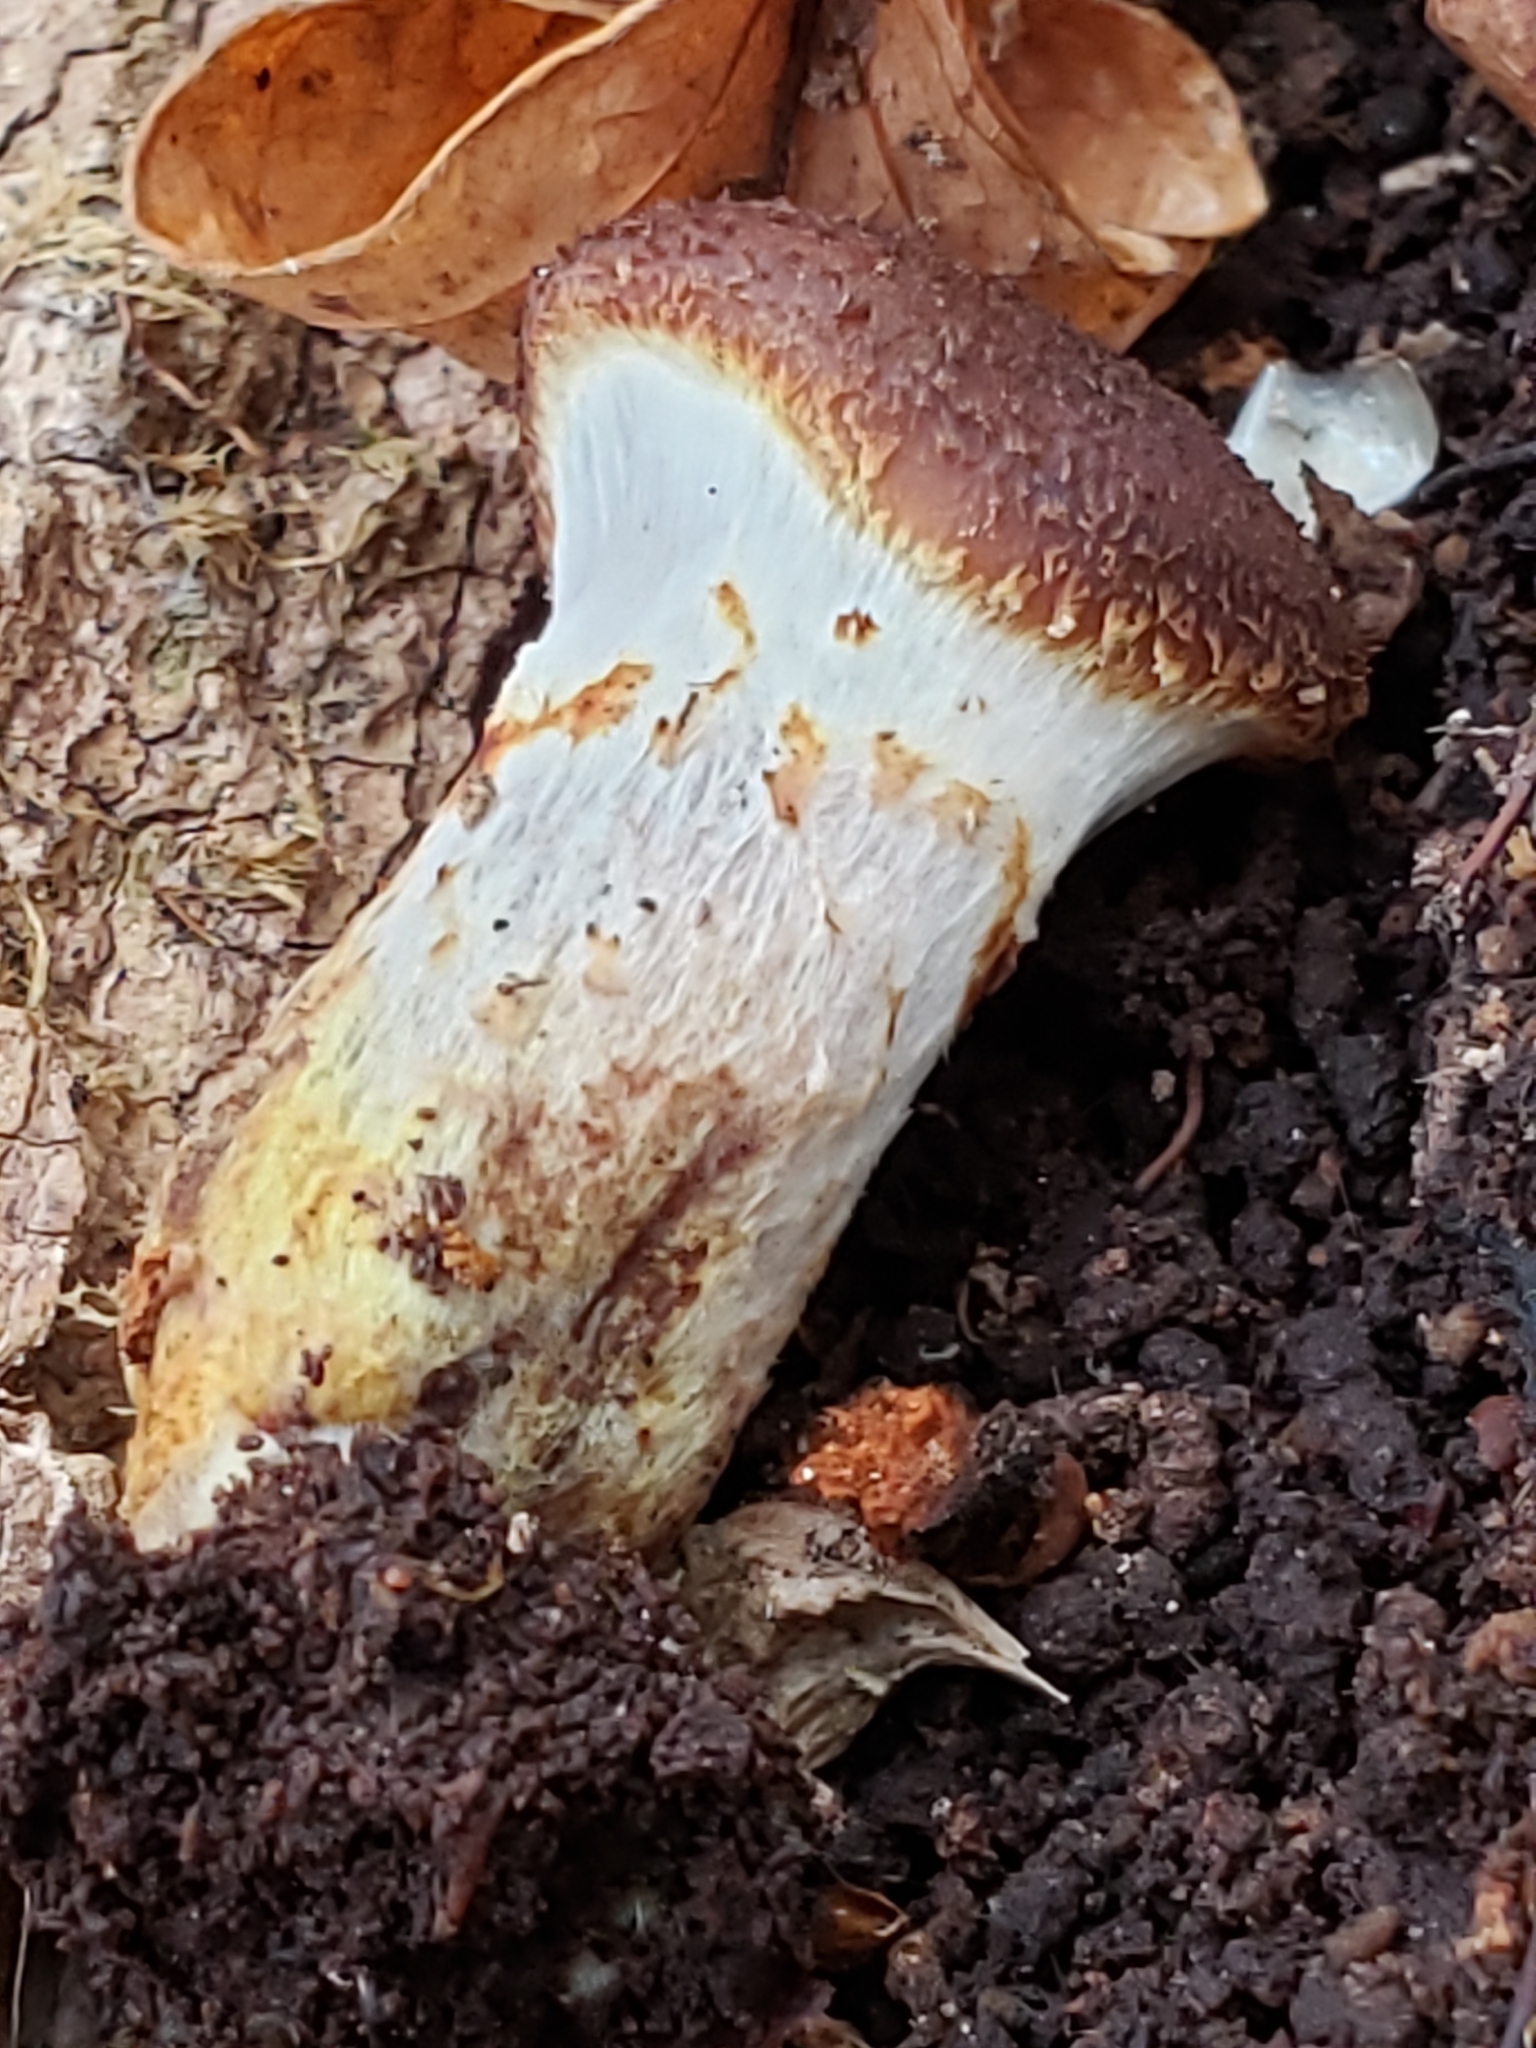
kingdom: Fungi
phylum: Basidiomycota
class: Agaricomycetes
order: Agaricales
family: Physalacriaceae
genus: Armillaria
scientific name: Armillaria sinapina
